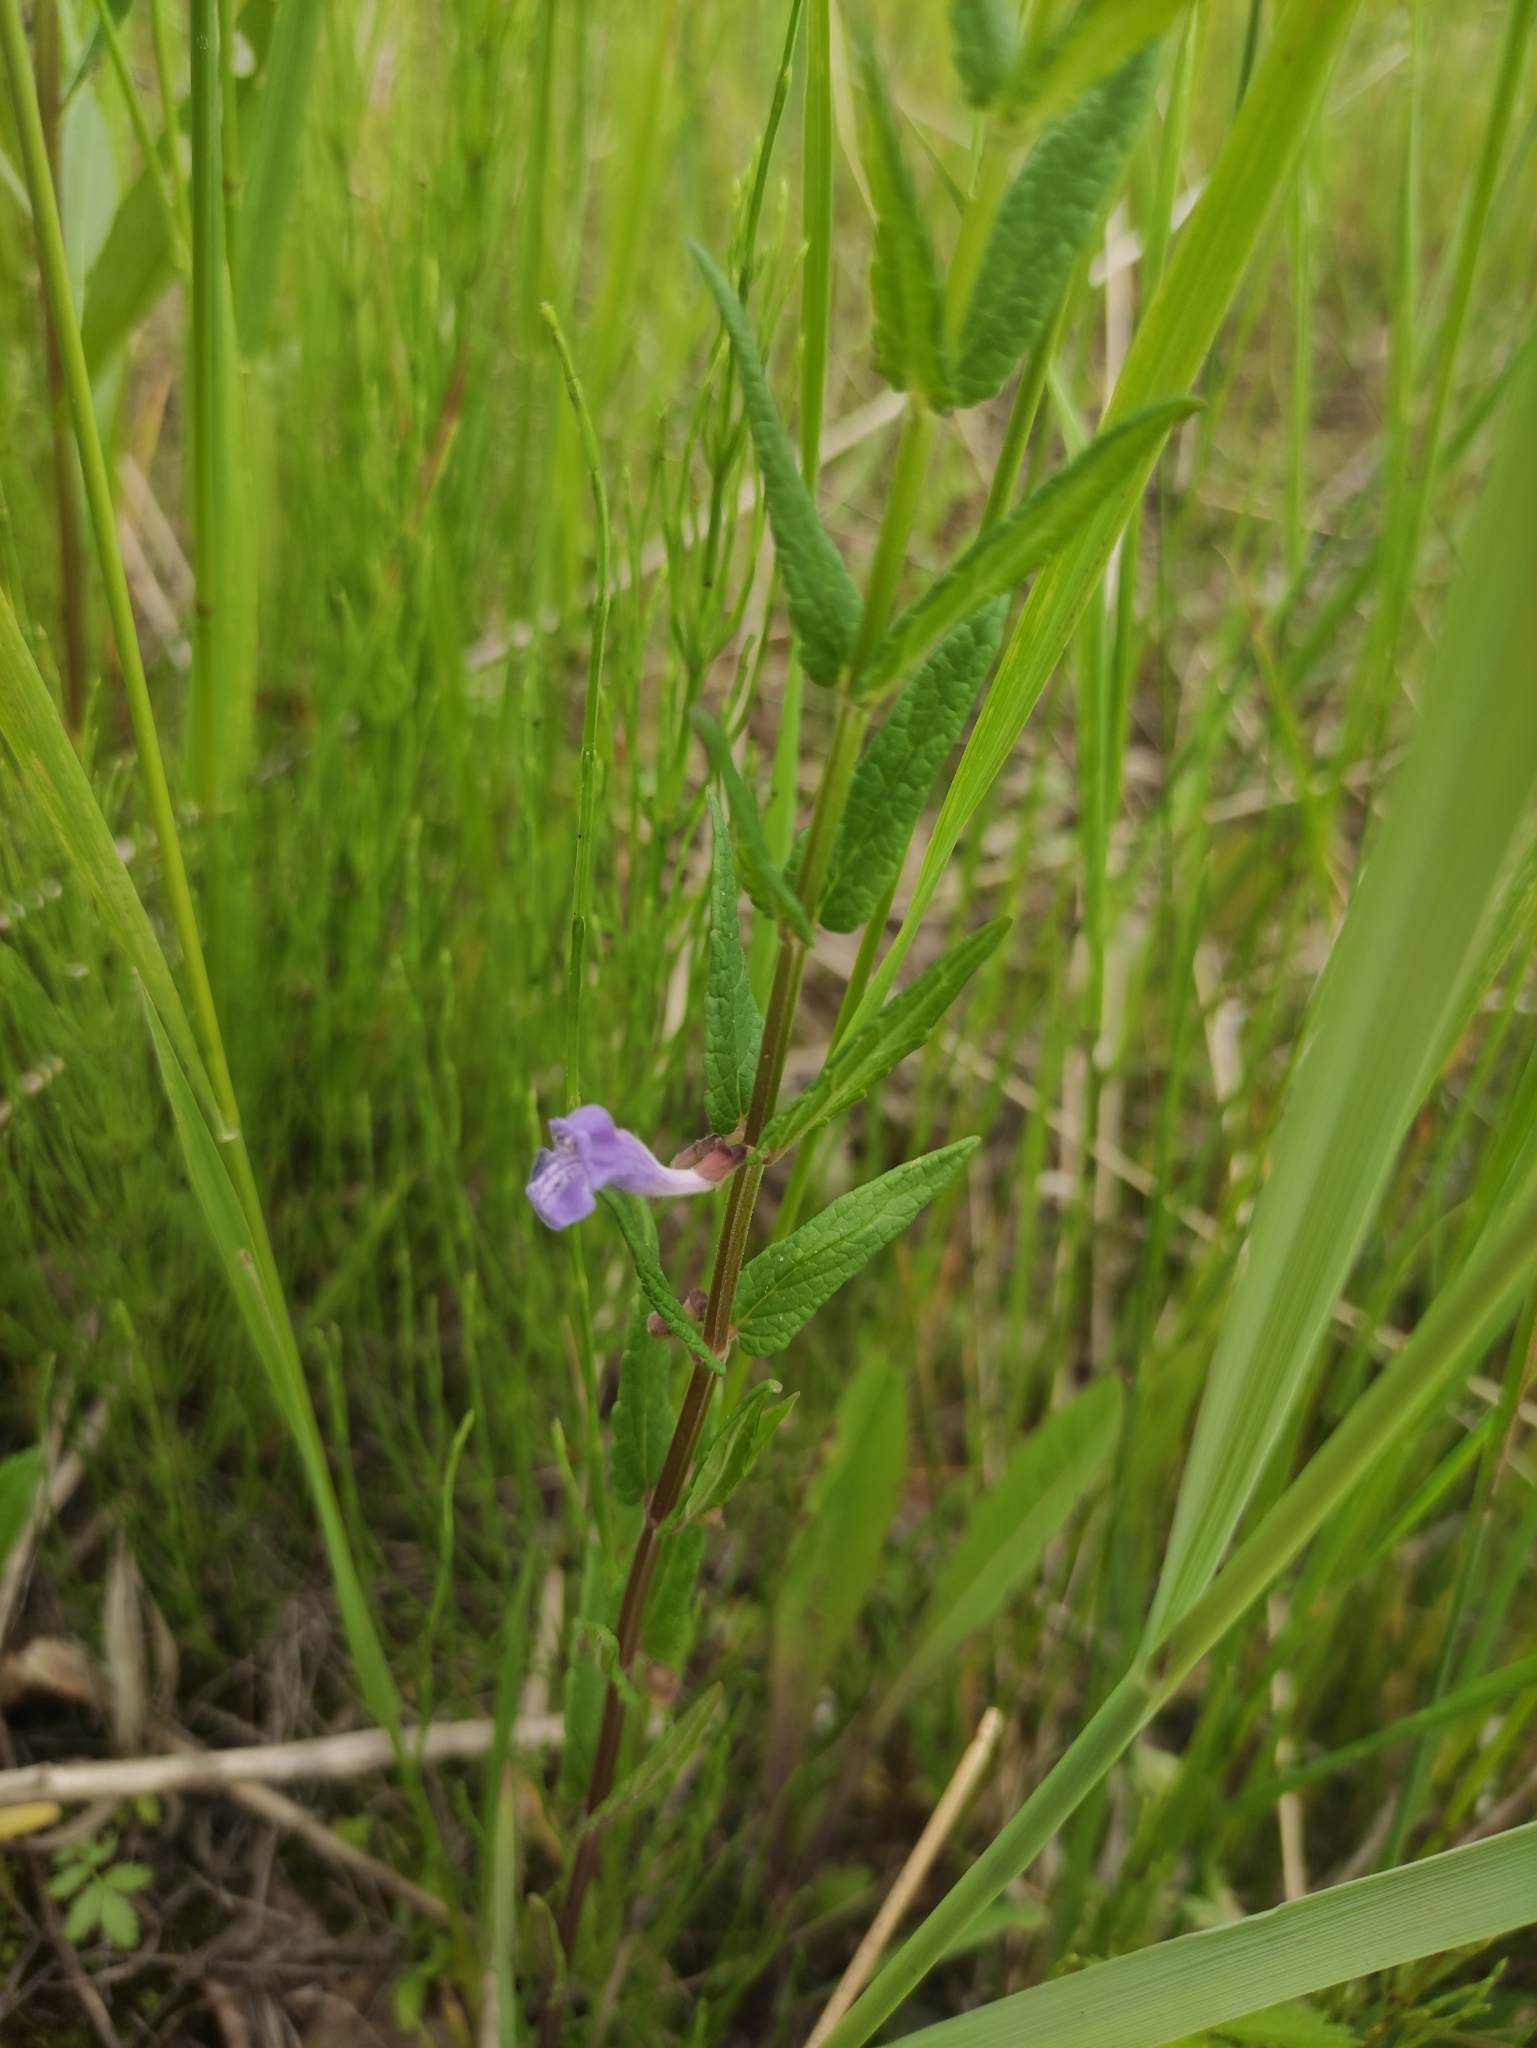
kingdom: Plantae
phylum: Tracheophyta
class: Magnoliopsida
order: Lamiales
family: Lamiaceae
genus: Scutellaria
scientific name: Scutellaria galericulata
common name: Skullcap
